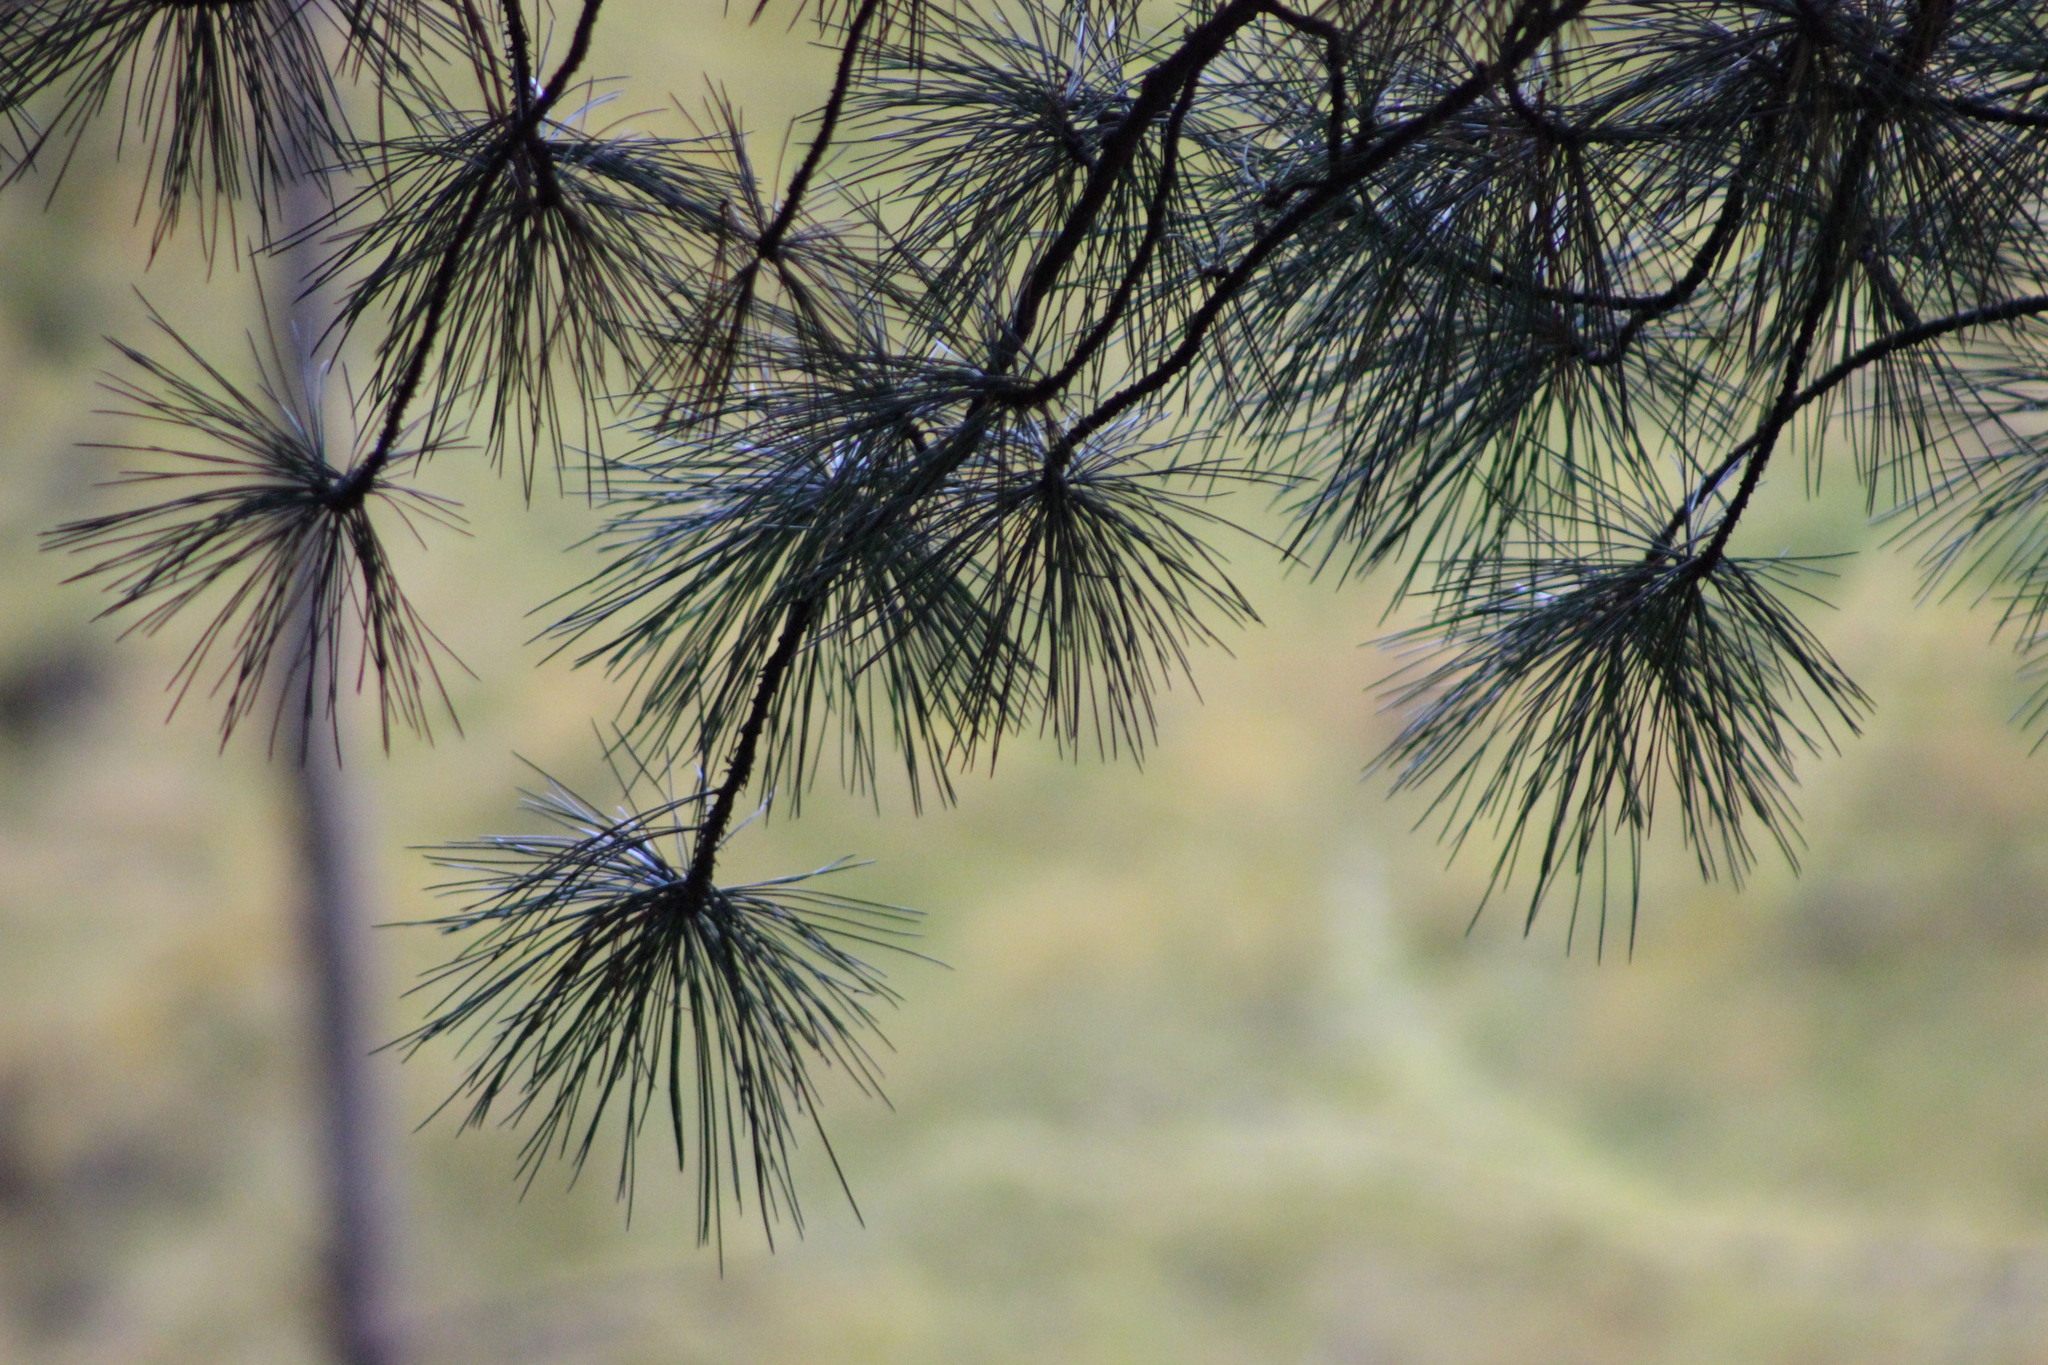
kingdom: Plantae
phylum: Tracheophyta
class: Pinopsida
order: Pinales
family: Pinaceae
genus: Pinus
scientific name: Pinus sibirica
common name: Siberian pine
